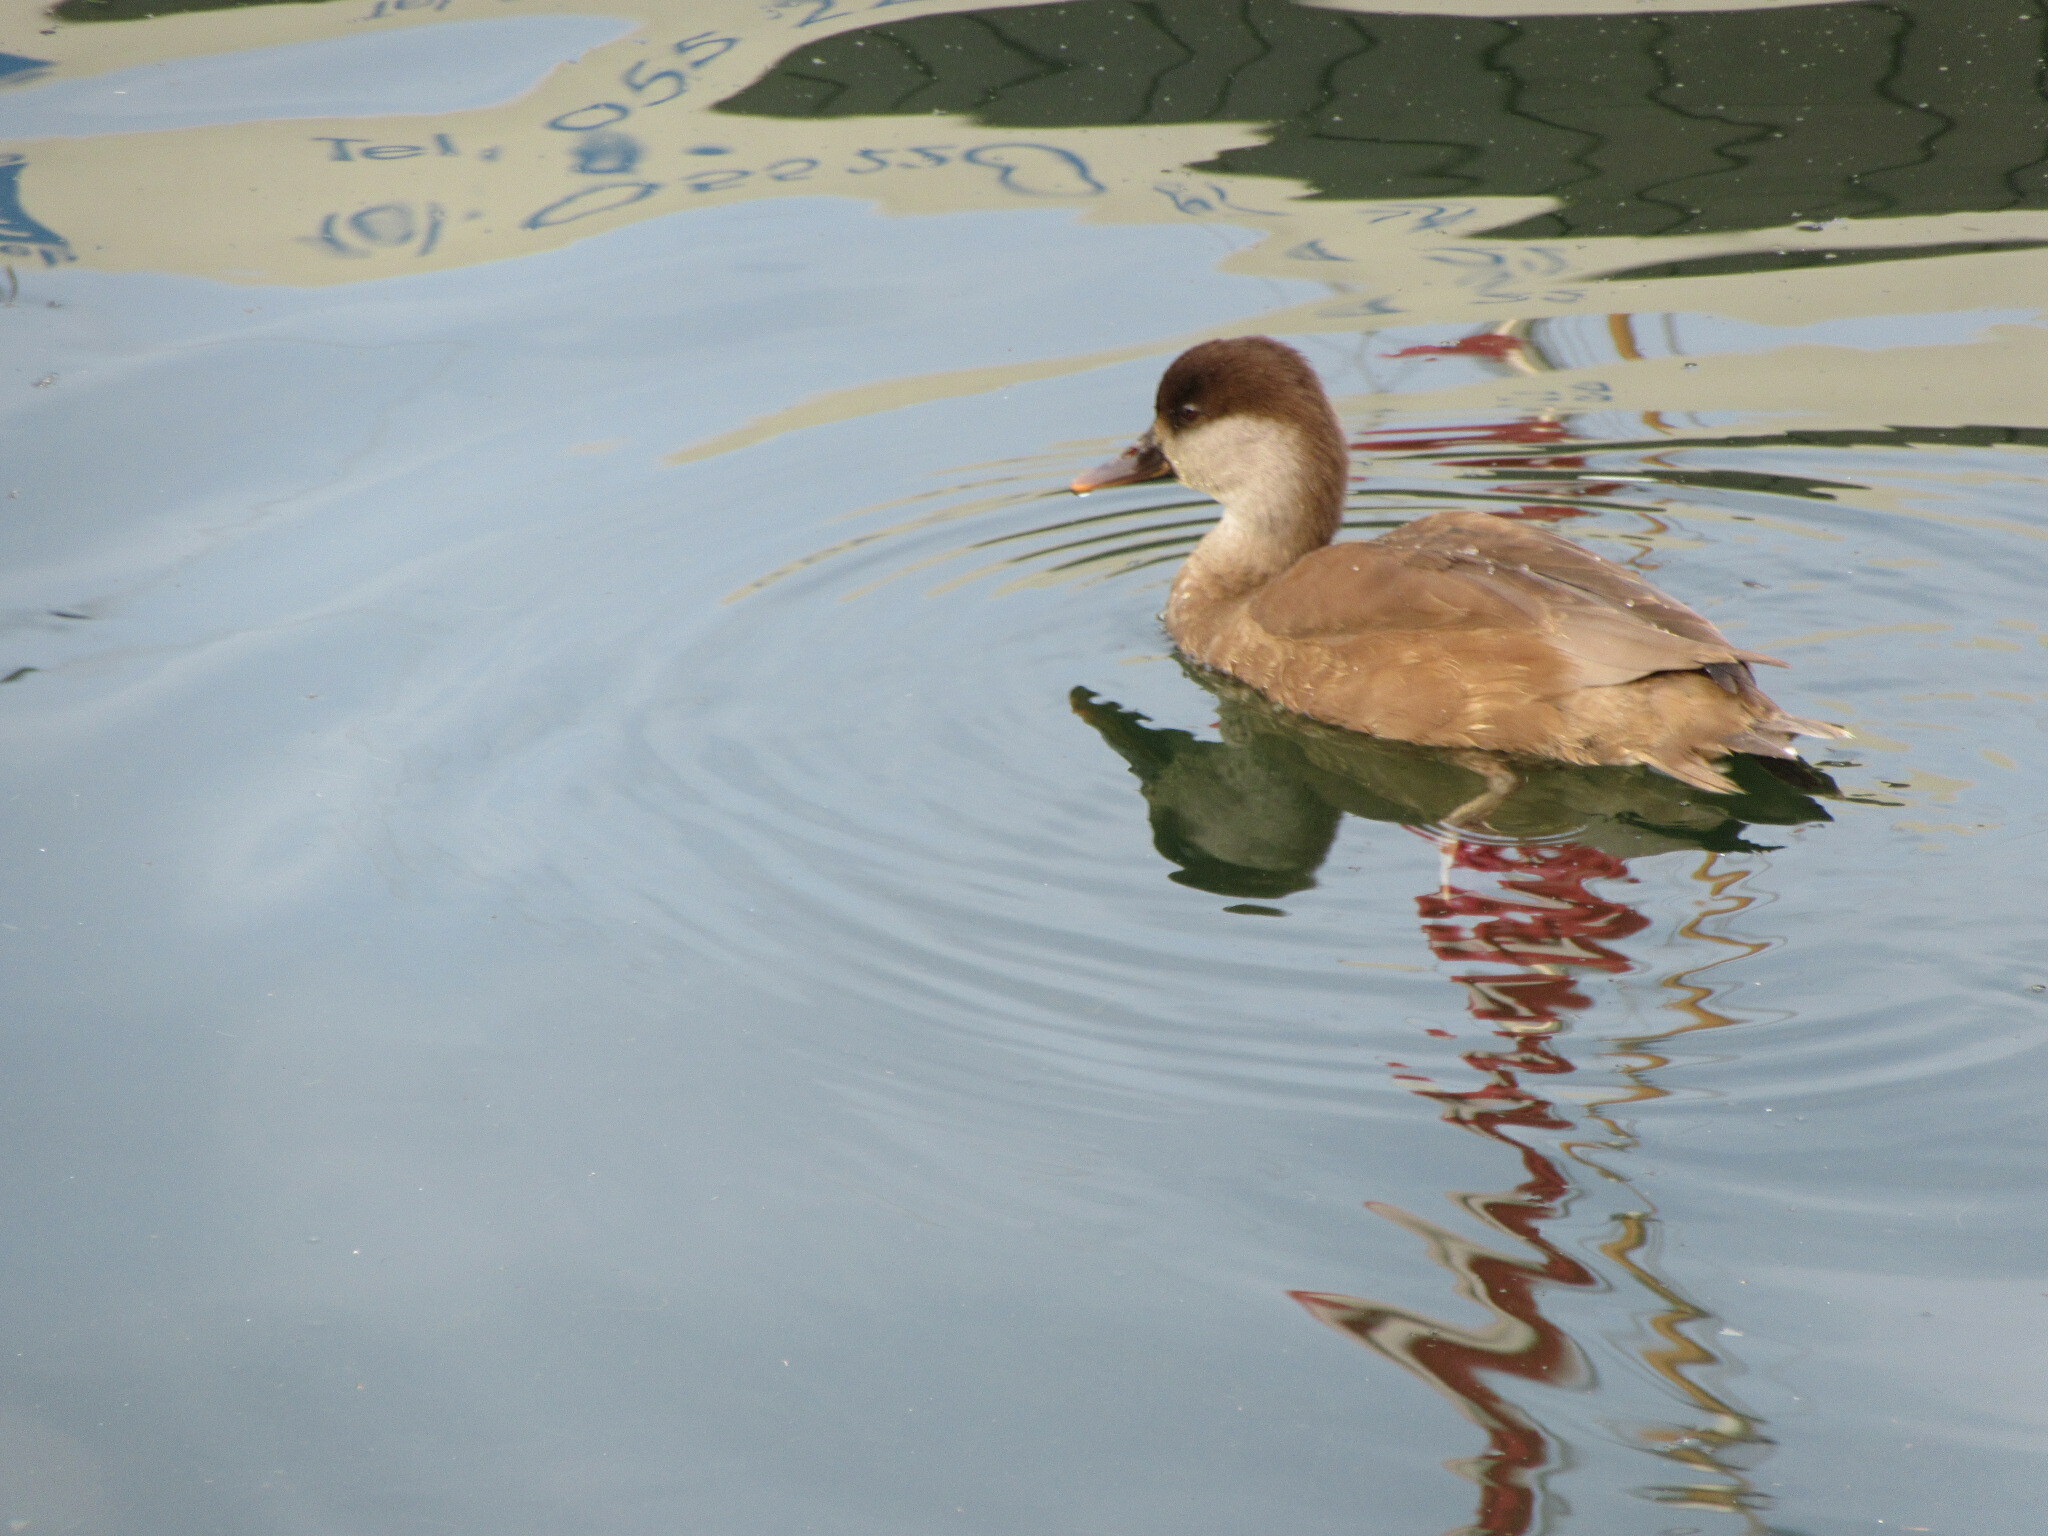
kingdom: Animalia
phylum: Chordata
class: Aves
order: Anseriformes
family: Anatidae
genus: Netta
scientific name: Netta rufina
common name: Red-crested pochard
